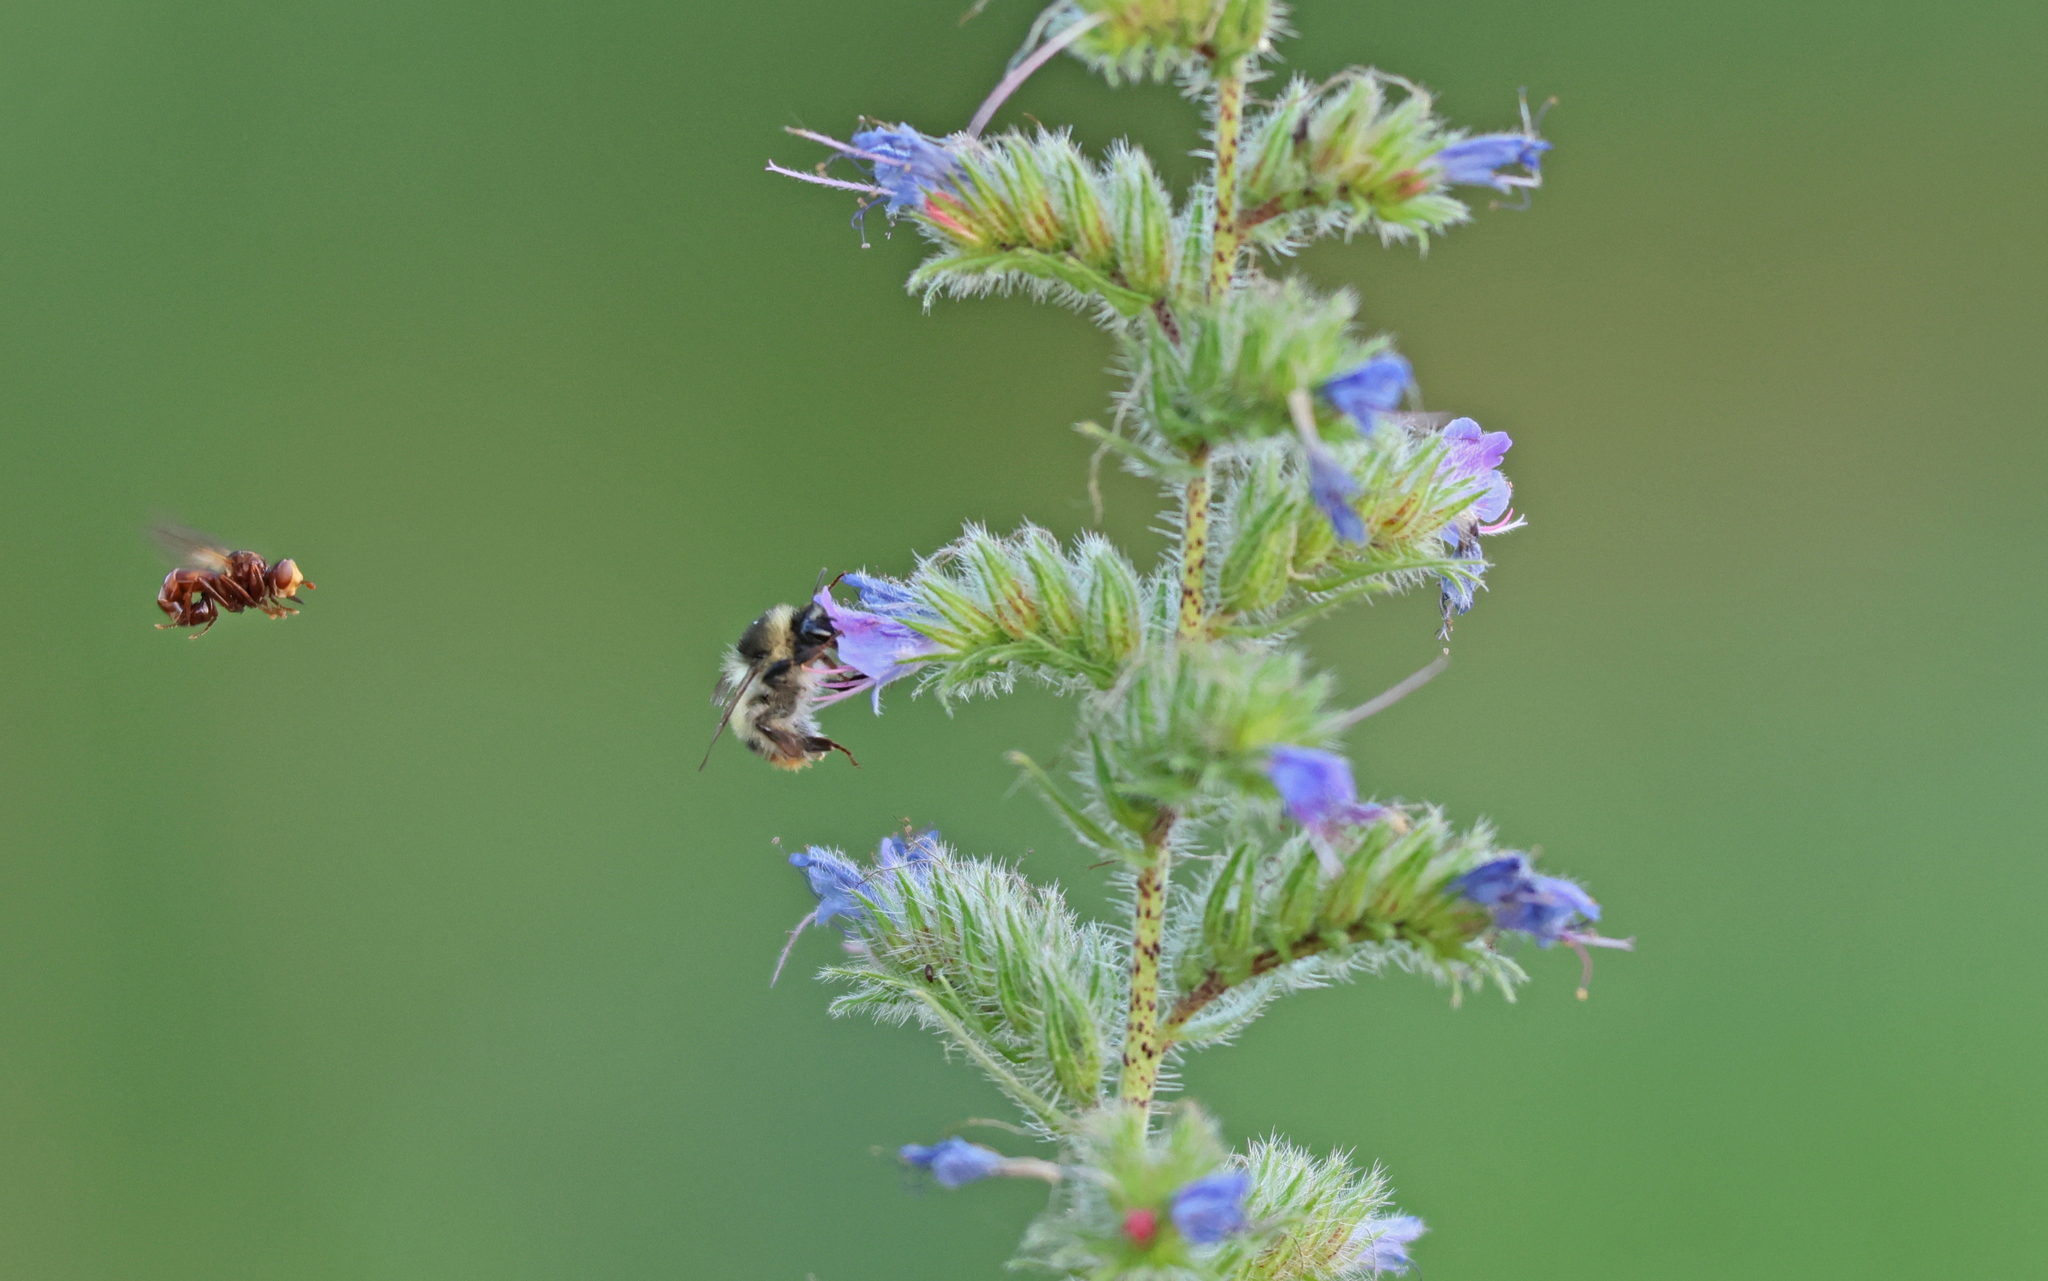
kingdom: Animalia
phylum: Arthropoda
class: Insecta
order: Diptera
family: Conopidae
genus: Sicus
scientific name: Sicus ferrugineus
